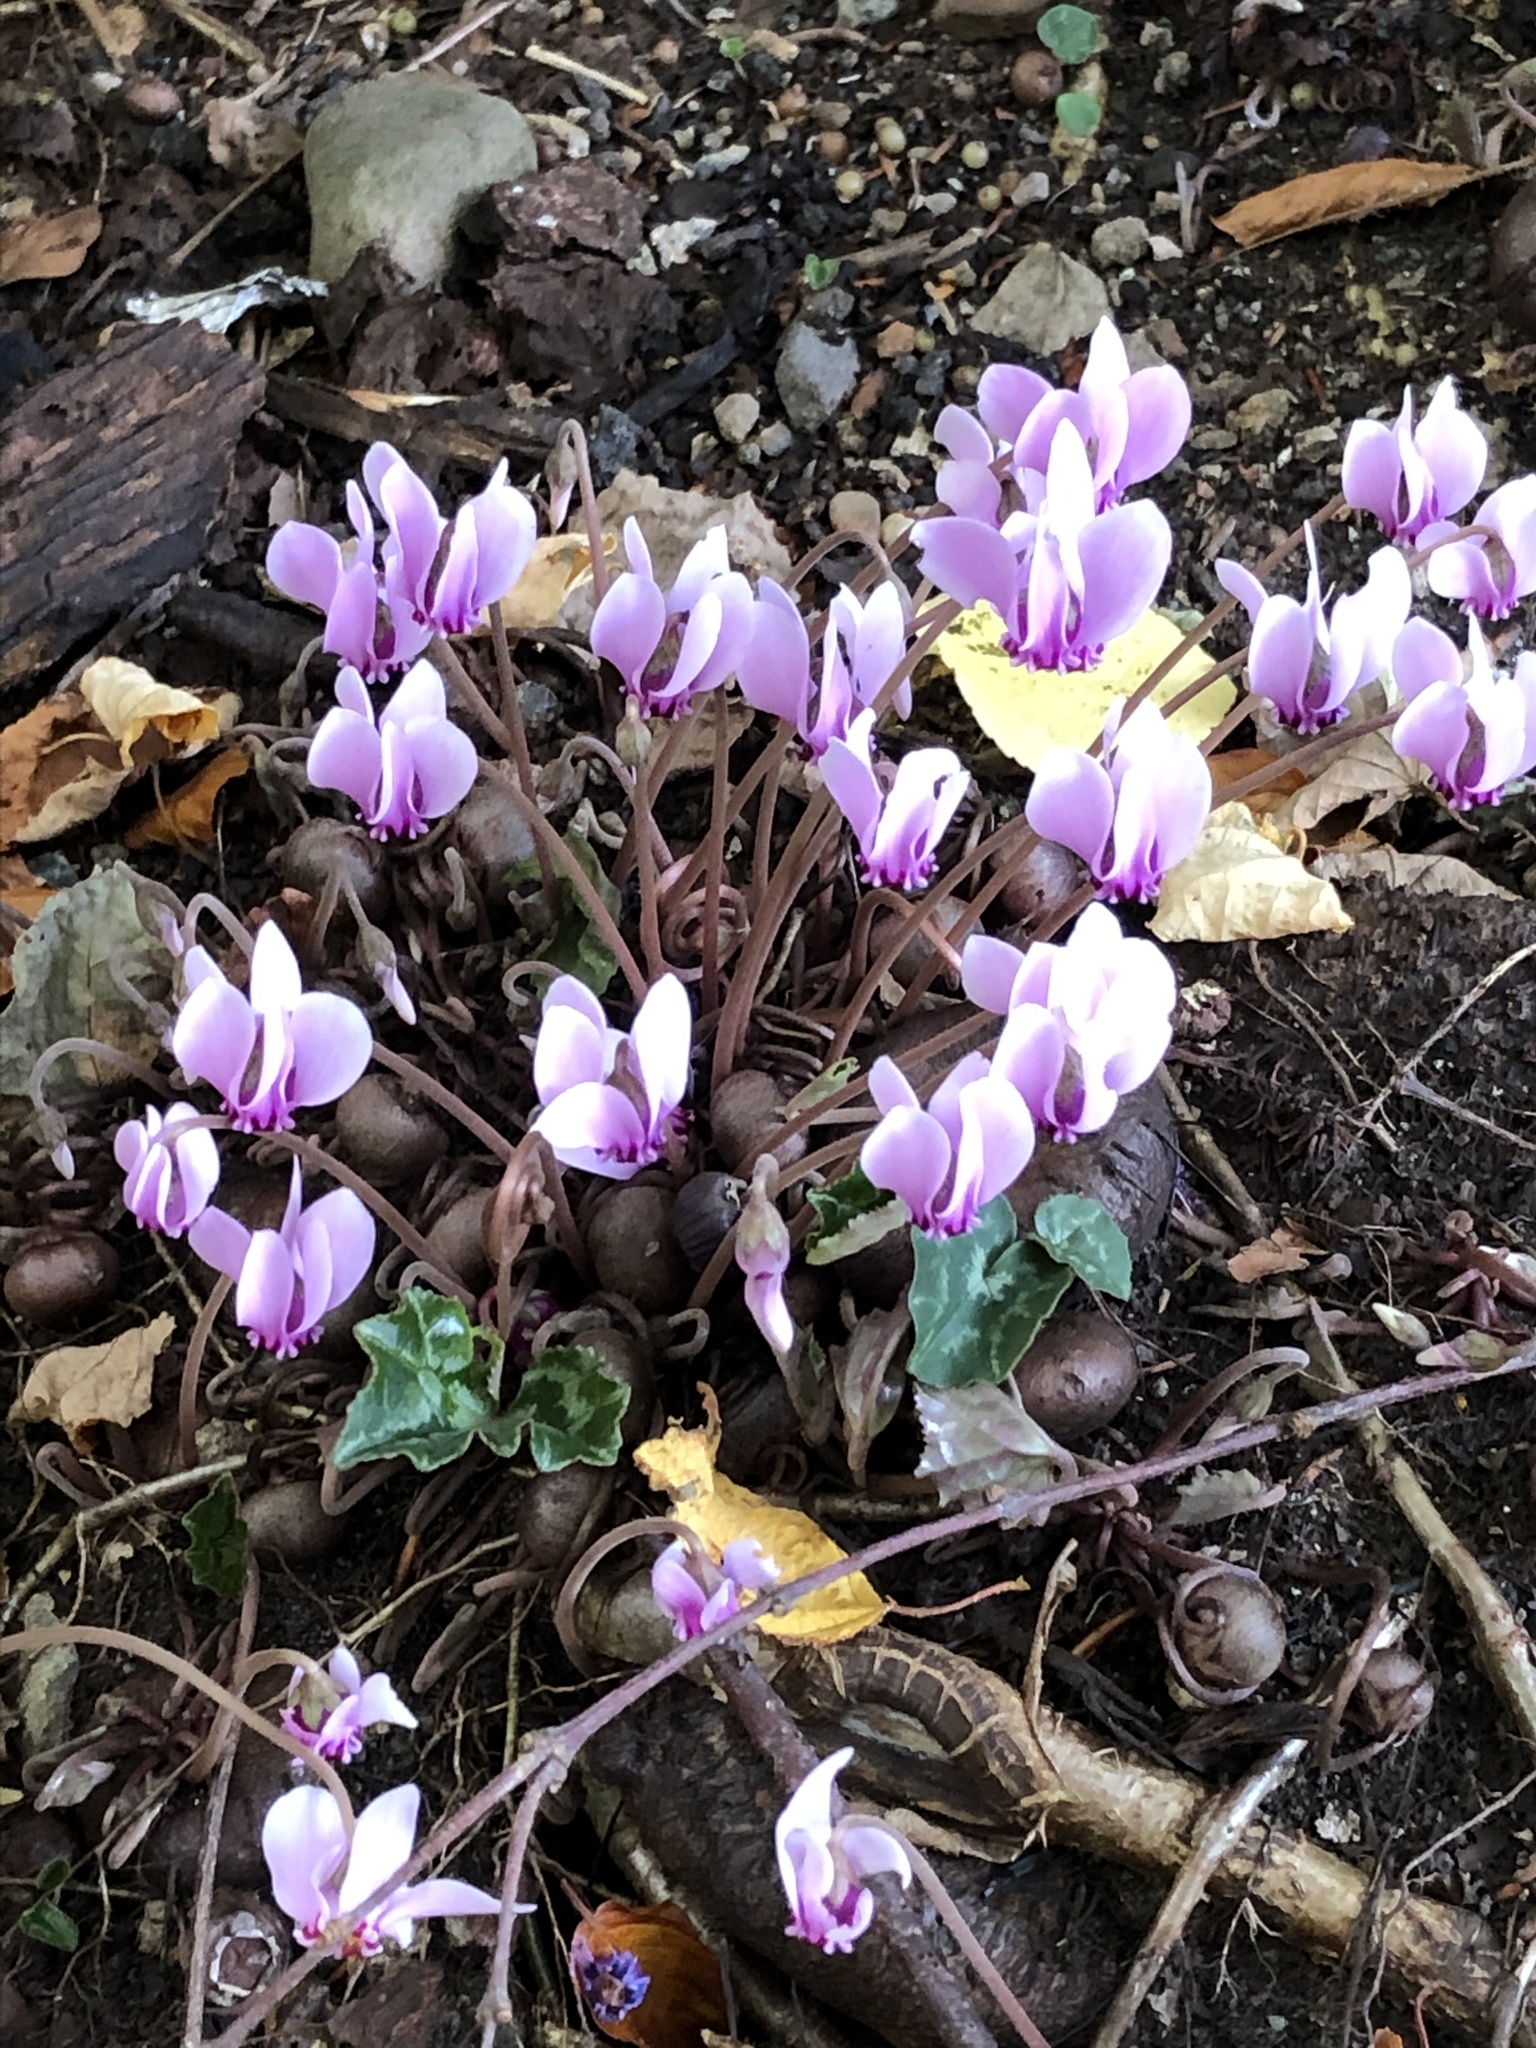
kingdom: Plantae
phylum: Tracheophyta
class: Magnoliopsida
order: Ericales
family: Primulaceae
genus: Cyclamen
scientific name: Cyclamen hederifolium
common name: Sowbread
